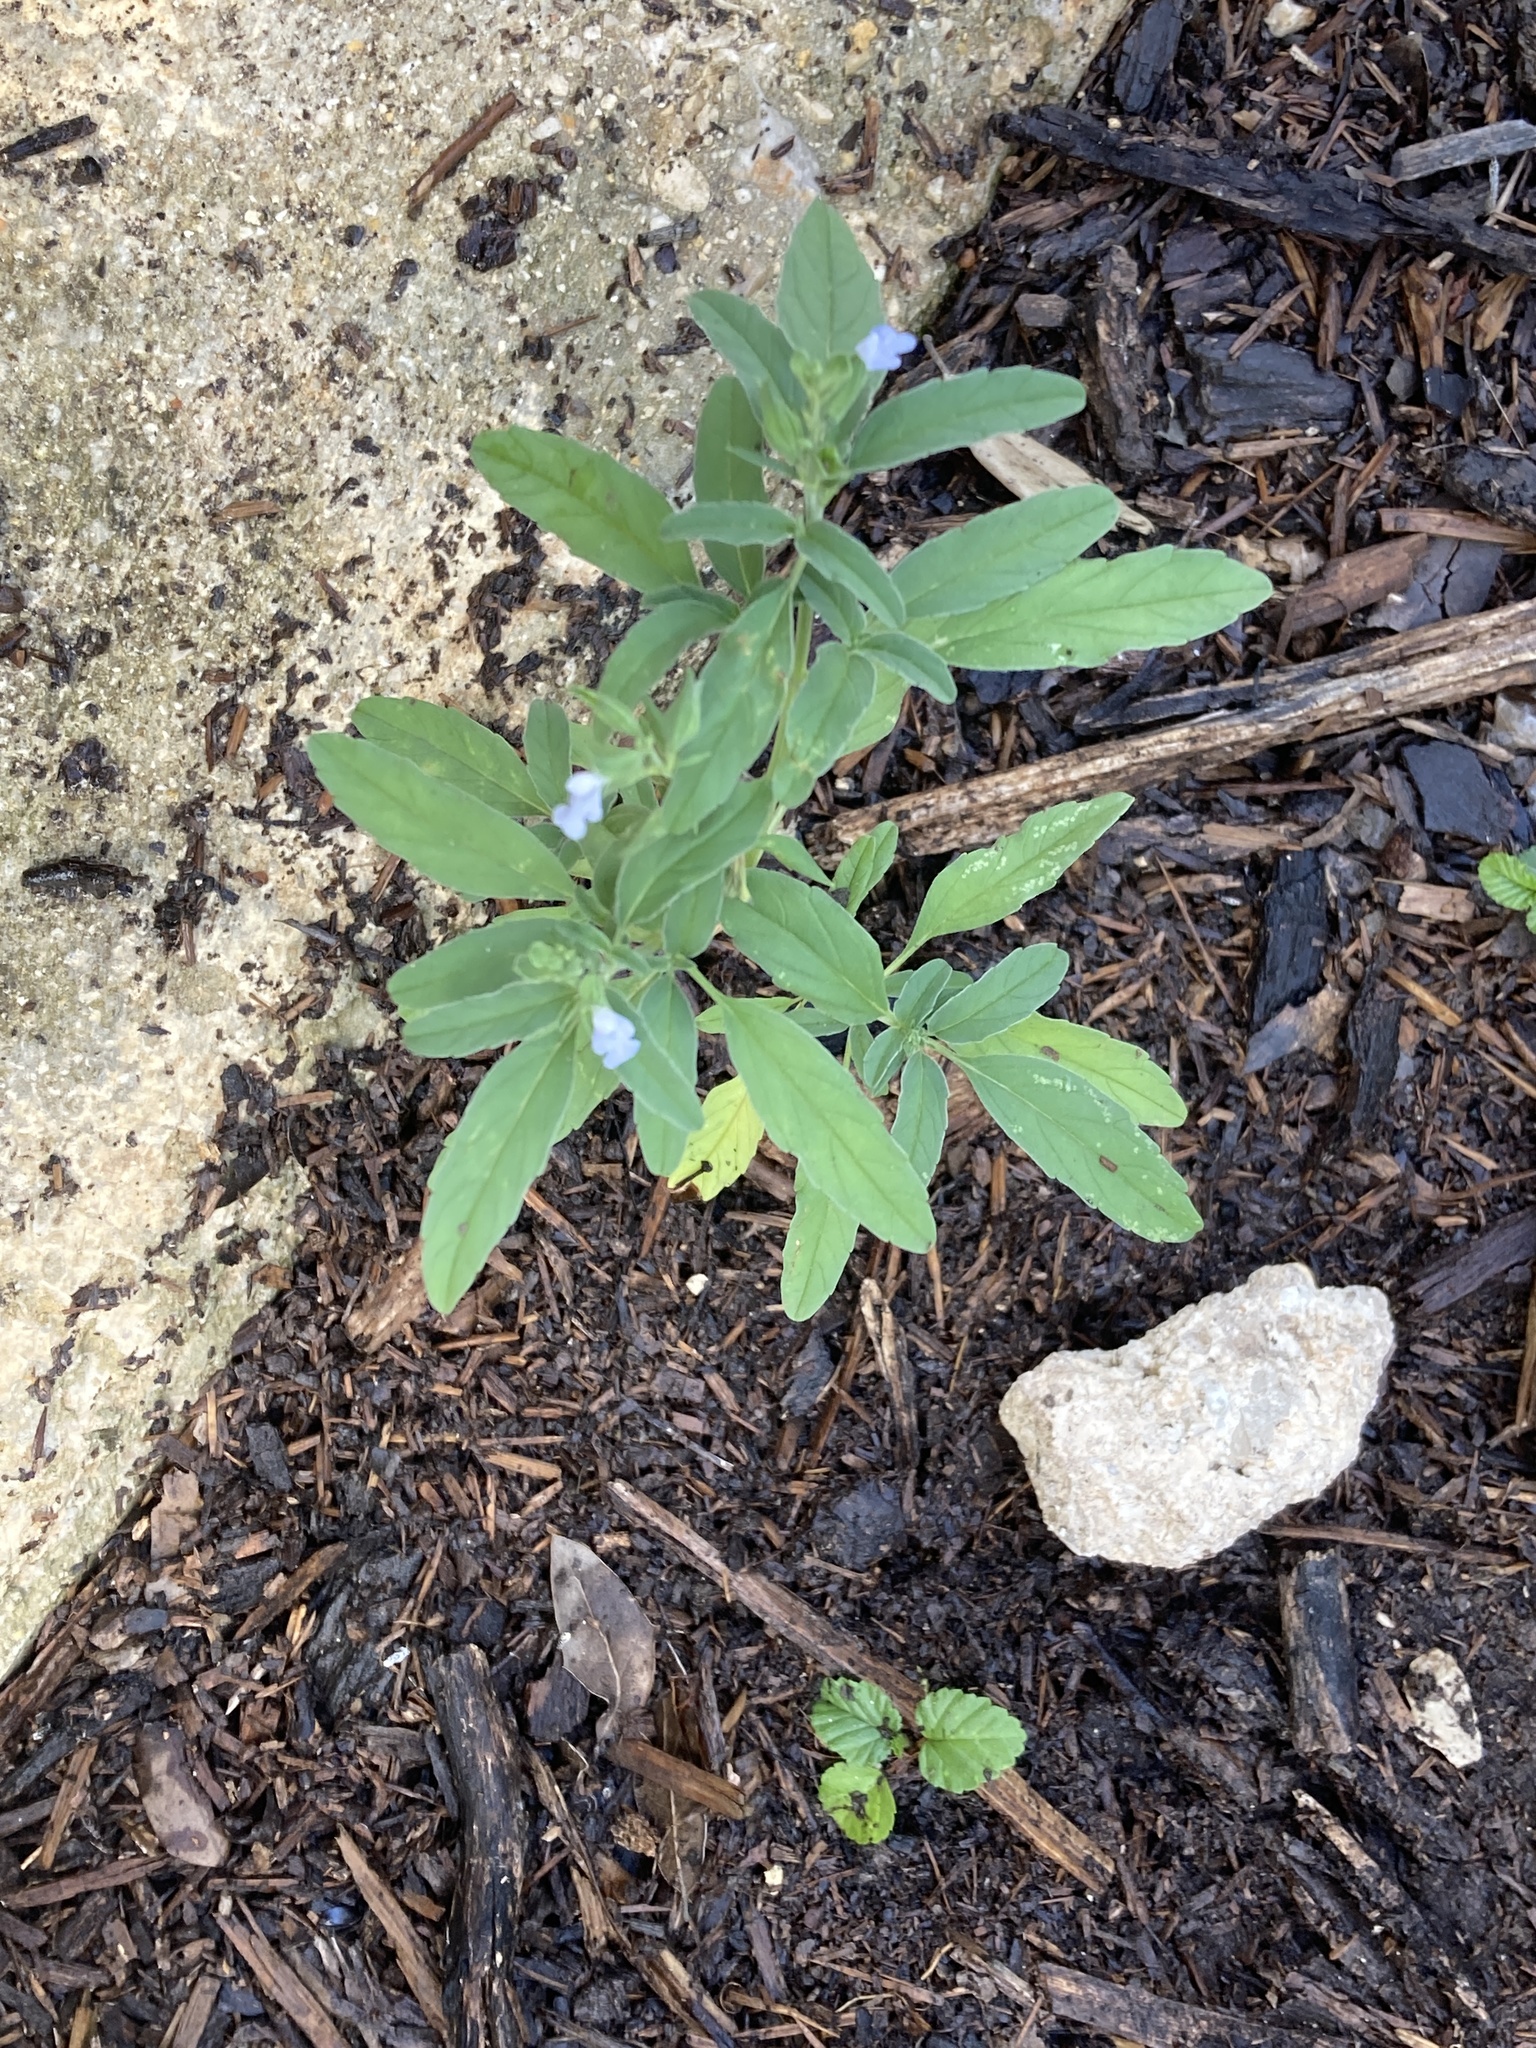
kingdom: Plantae
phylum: Tracheophyta
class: Magnoliopsida
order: Lamiales
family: Lamiaceae
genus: Salvia
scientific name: Salvia reflexa
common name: Mintweed
